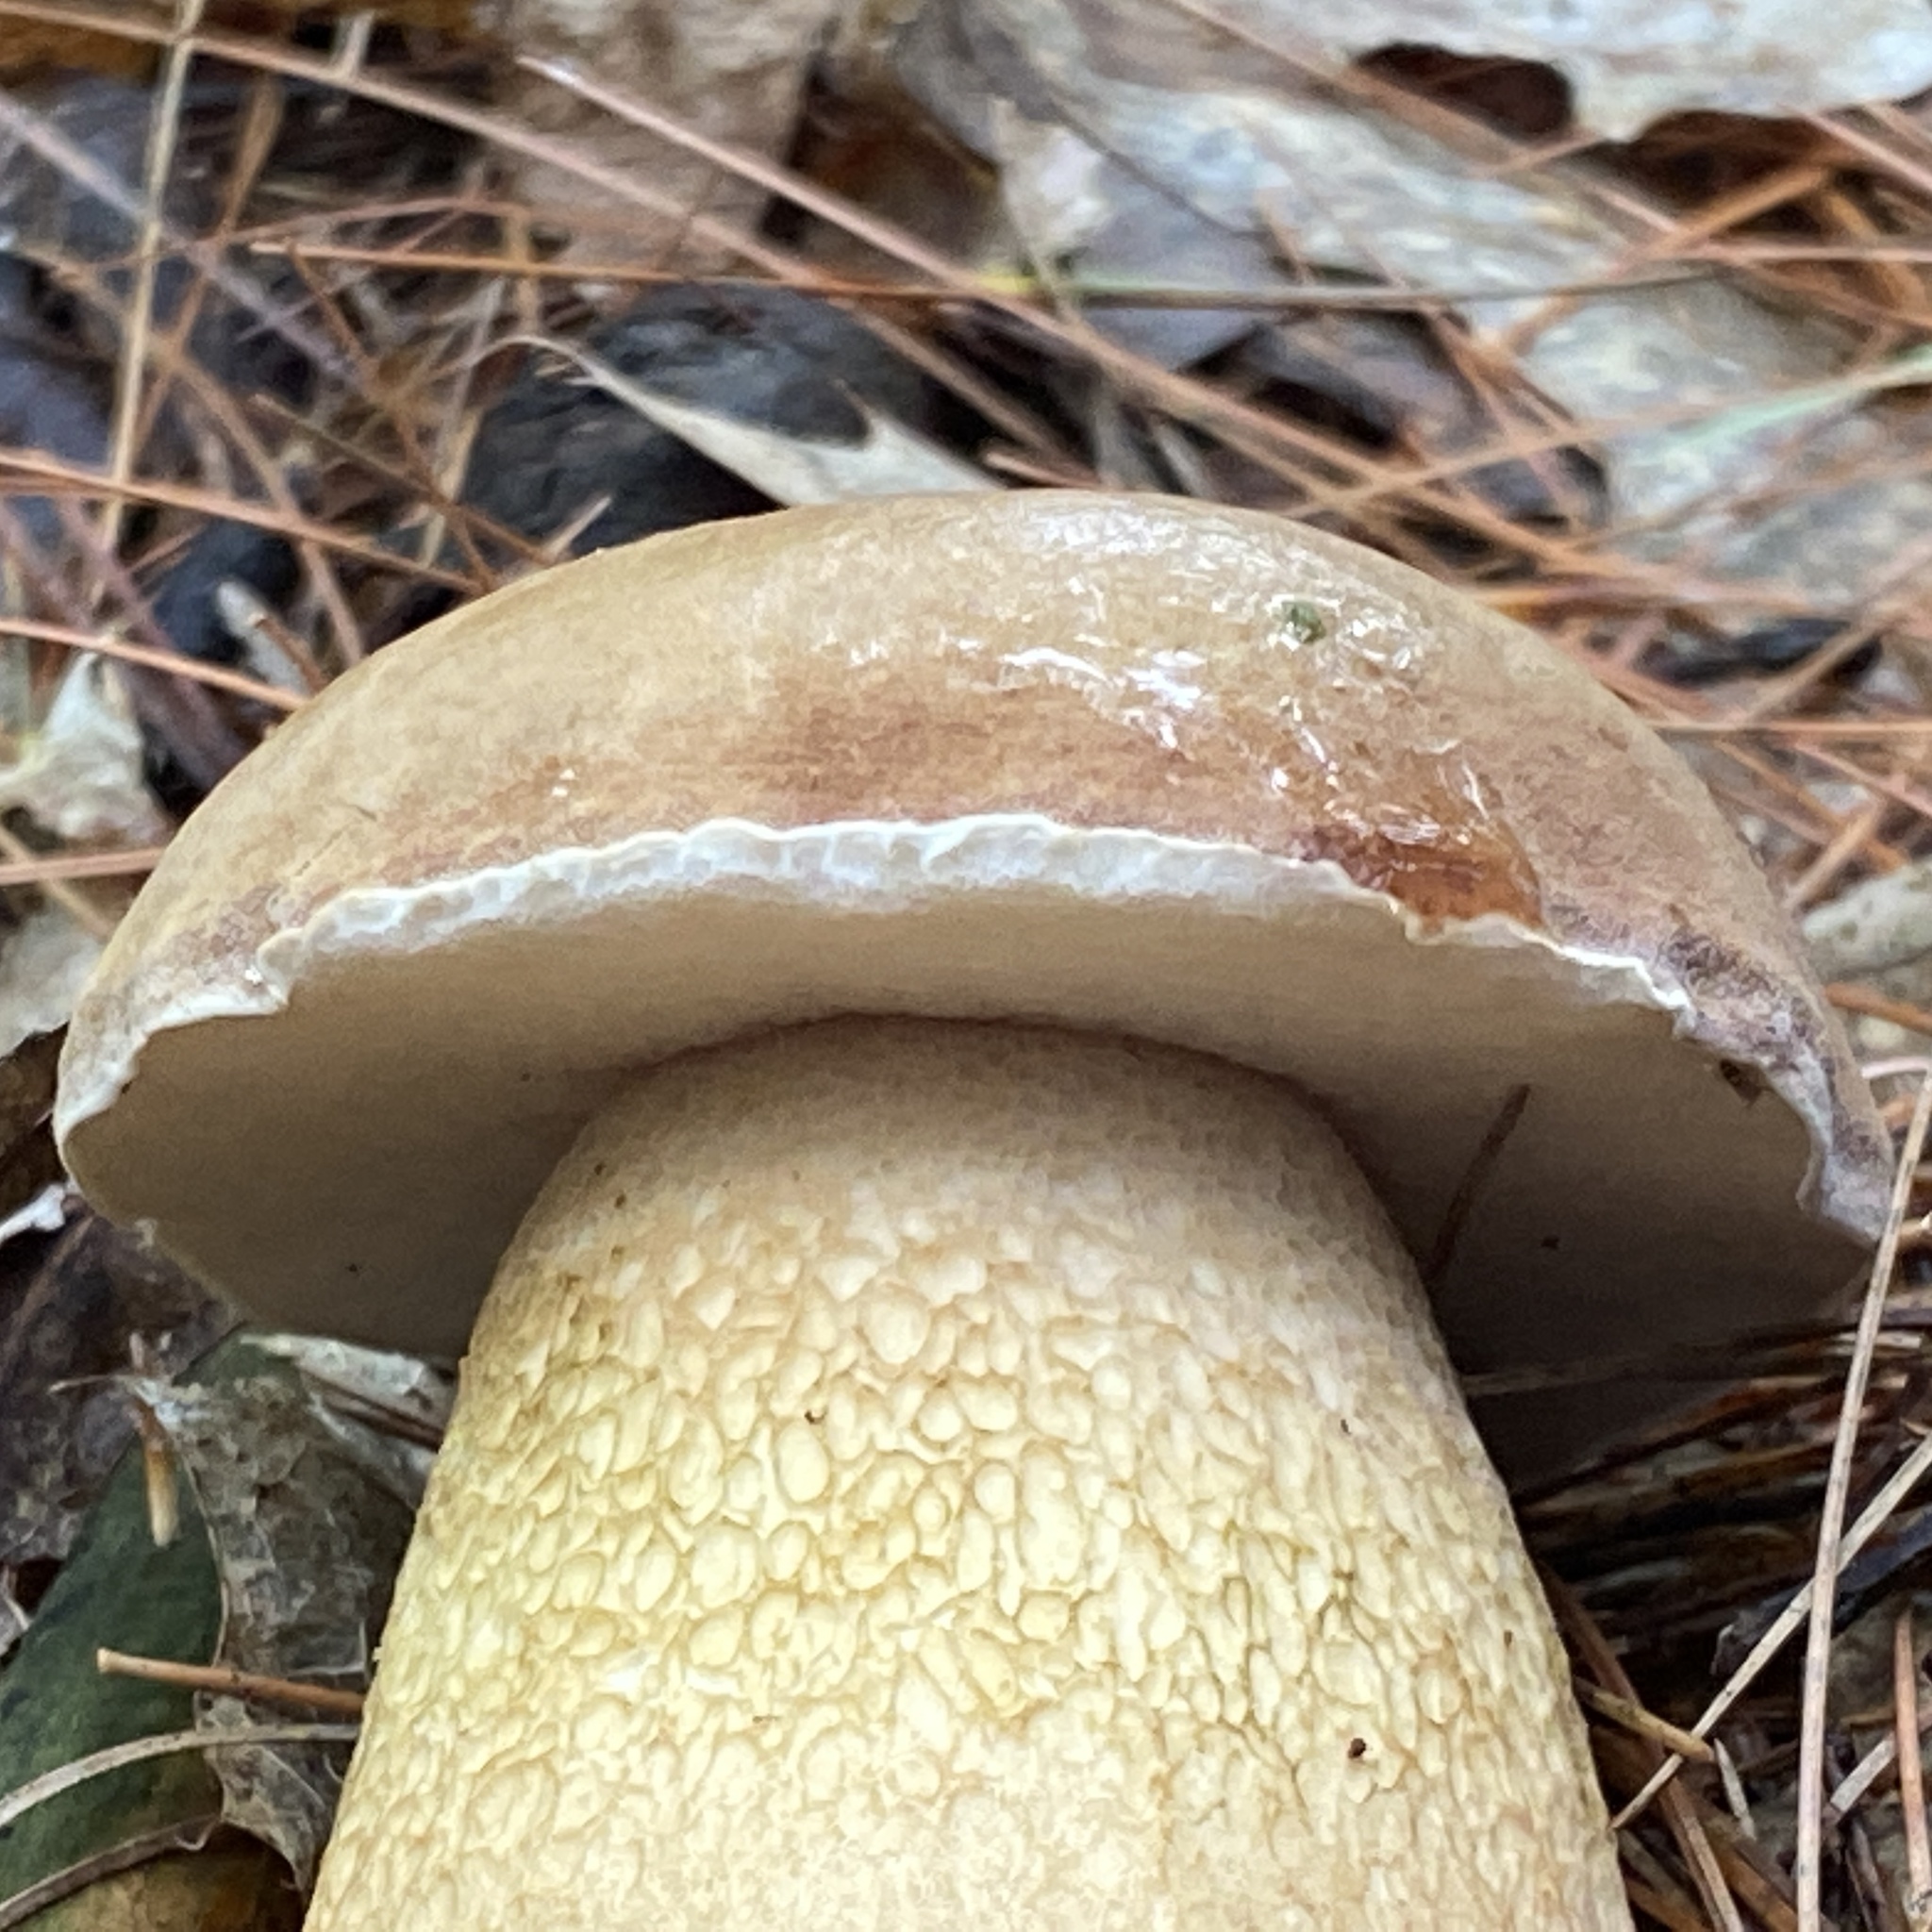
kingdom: Fungi
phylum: Basidiomycota
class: Agaricomycetes
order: Boletales
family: Boletaceae
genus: Tylopilus
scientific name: Tylopilus felleus
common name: Bitter bolete
